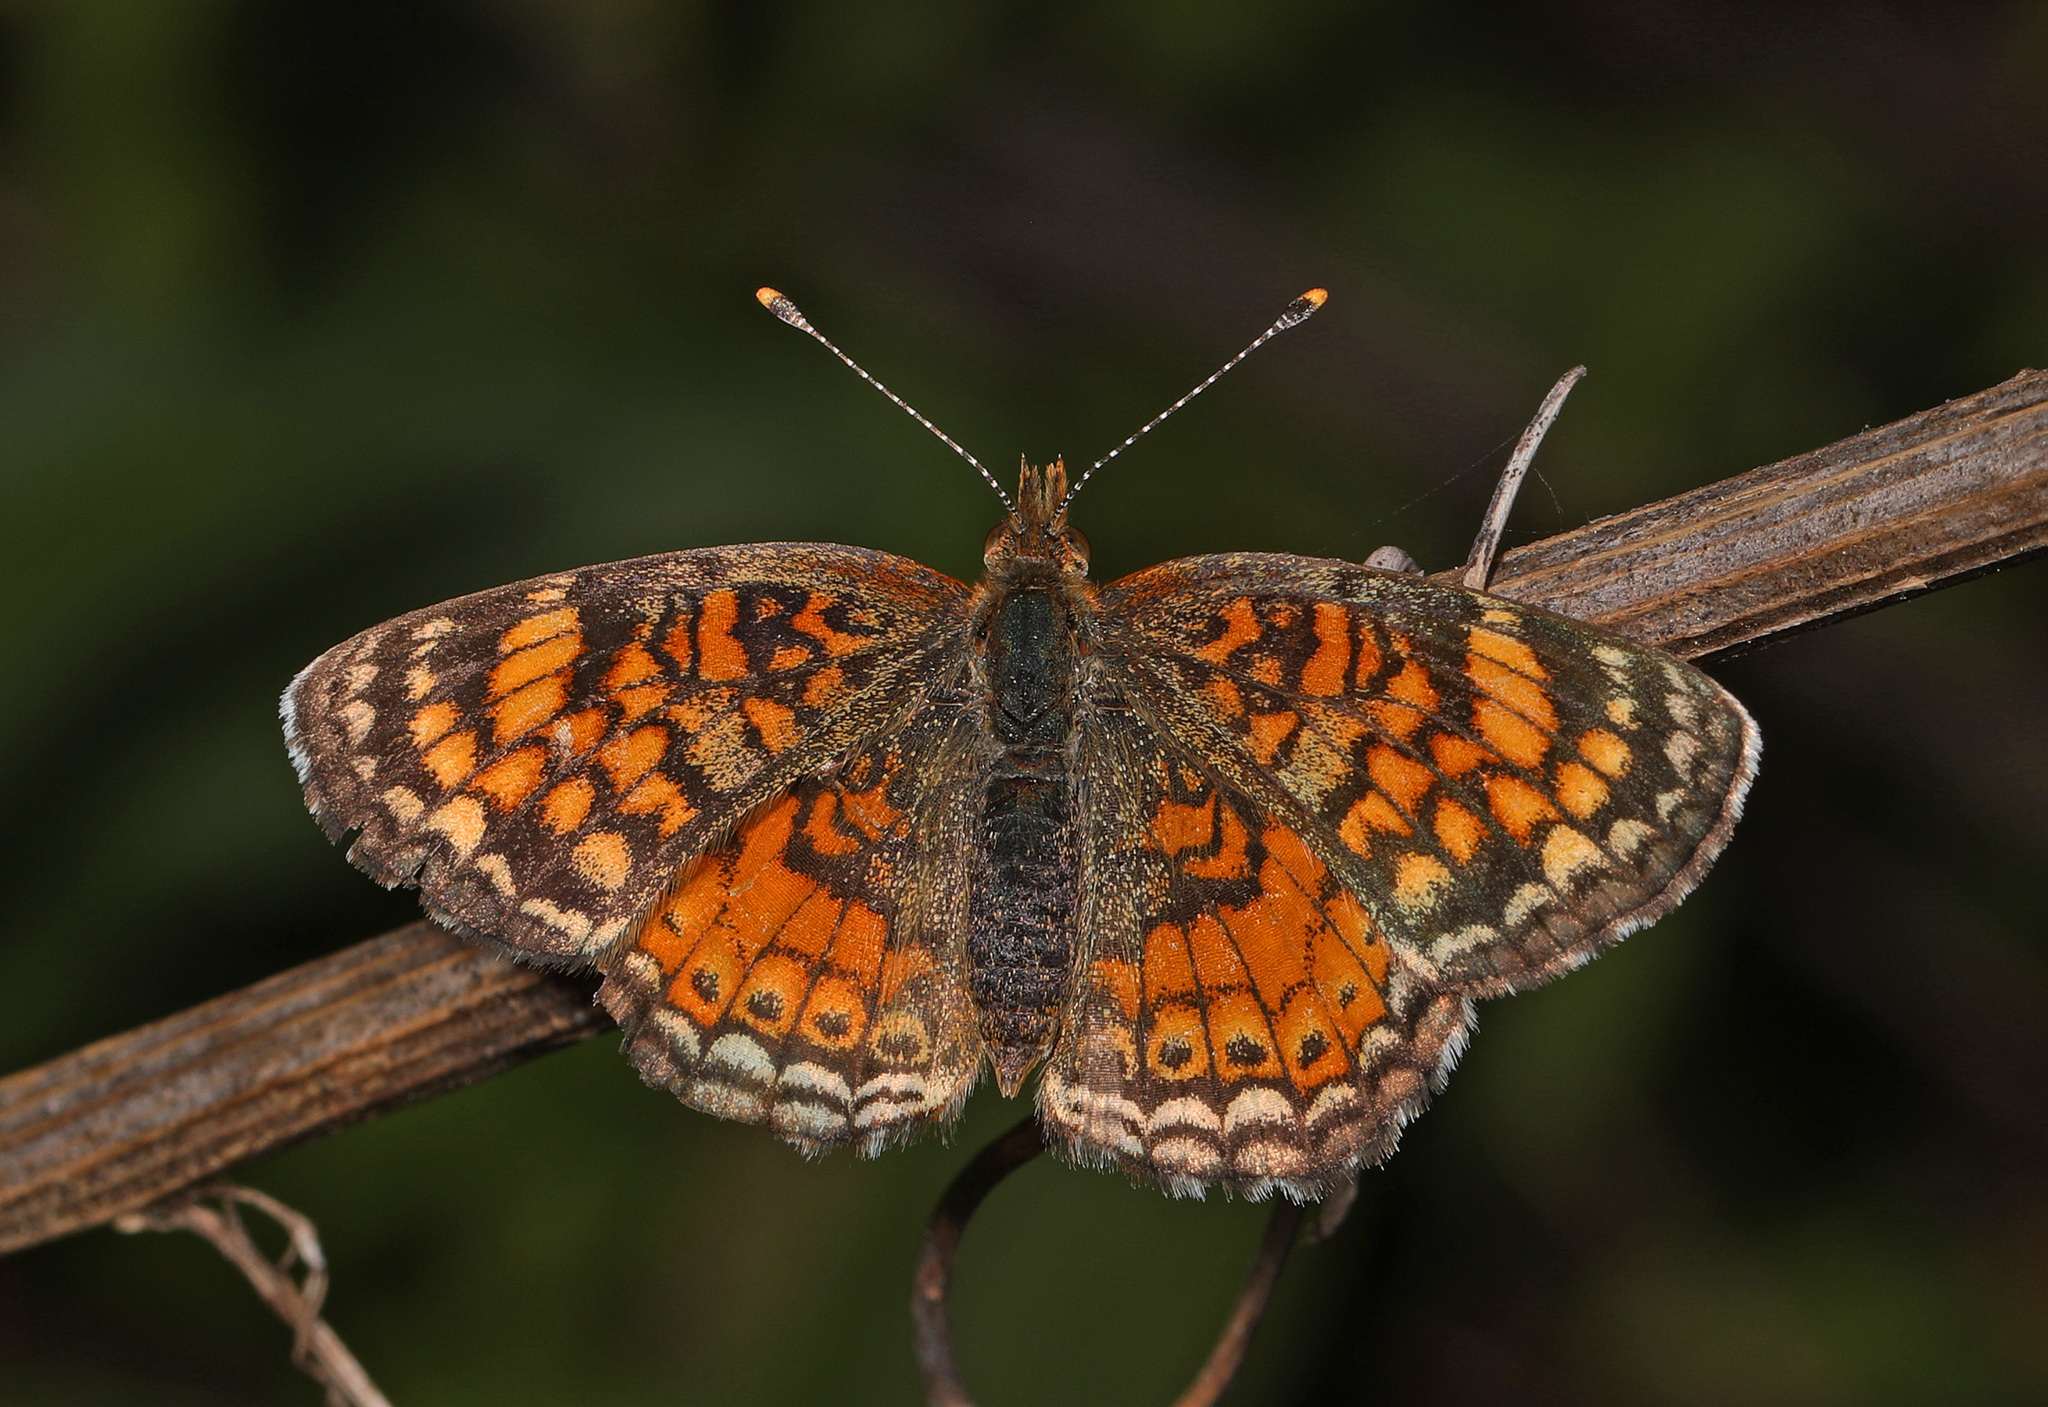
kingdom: Animalia
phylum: Arthropoda
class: Insecta
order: Lepidoptera
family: Nymphalidae
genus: Phyciodes
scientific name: Phyciodes tharos
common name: Pearl crescent
